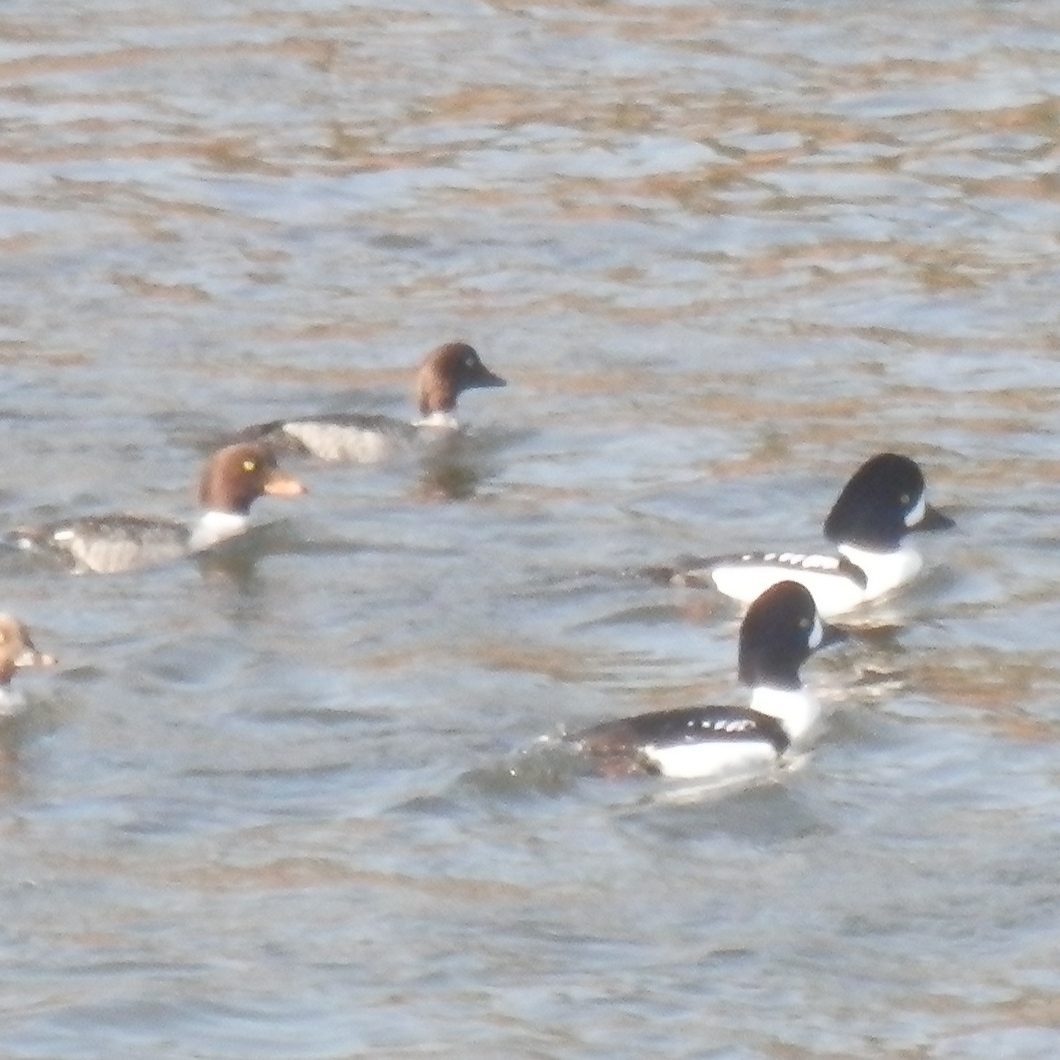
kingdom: Animalia
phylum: Chordata
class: Aves
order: Anseriformes
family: Anatidae
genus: Bucephala
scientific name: Bucephala islandica
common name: Barrow's goldeneye
